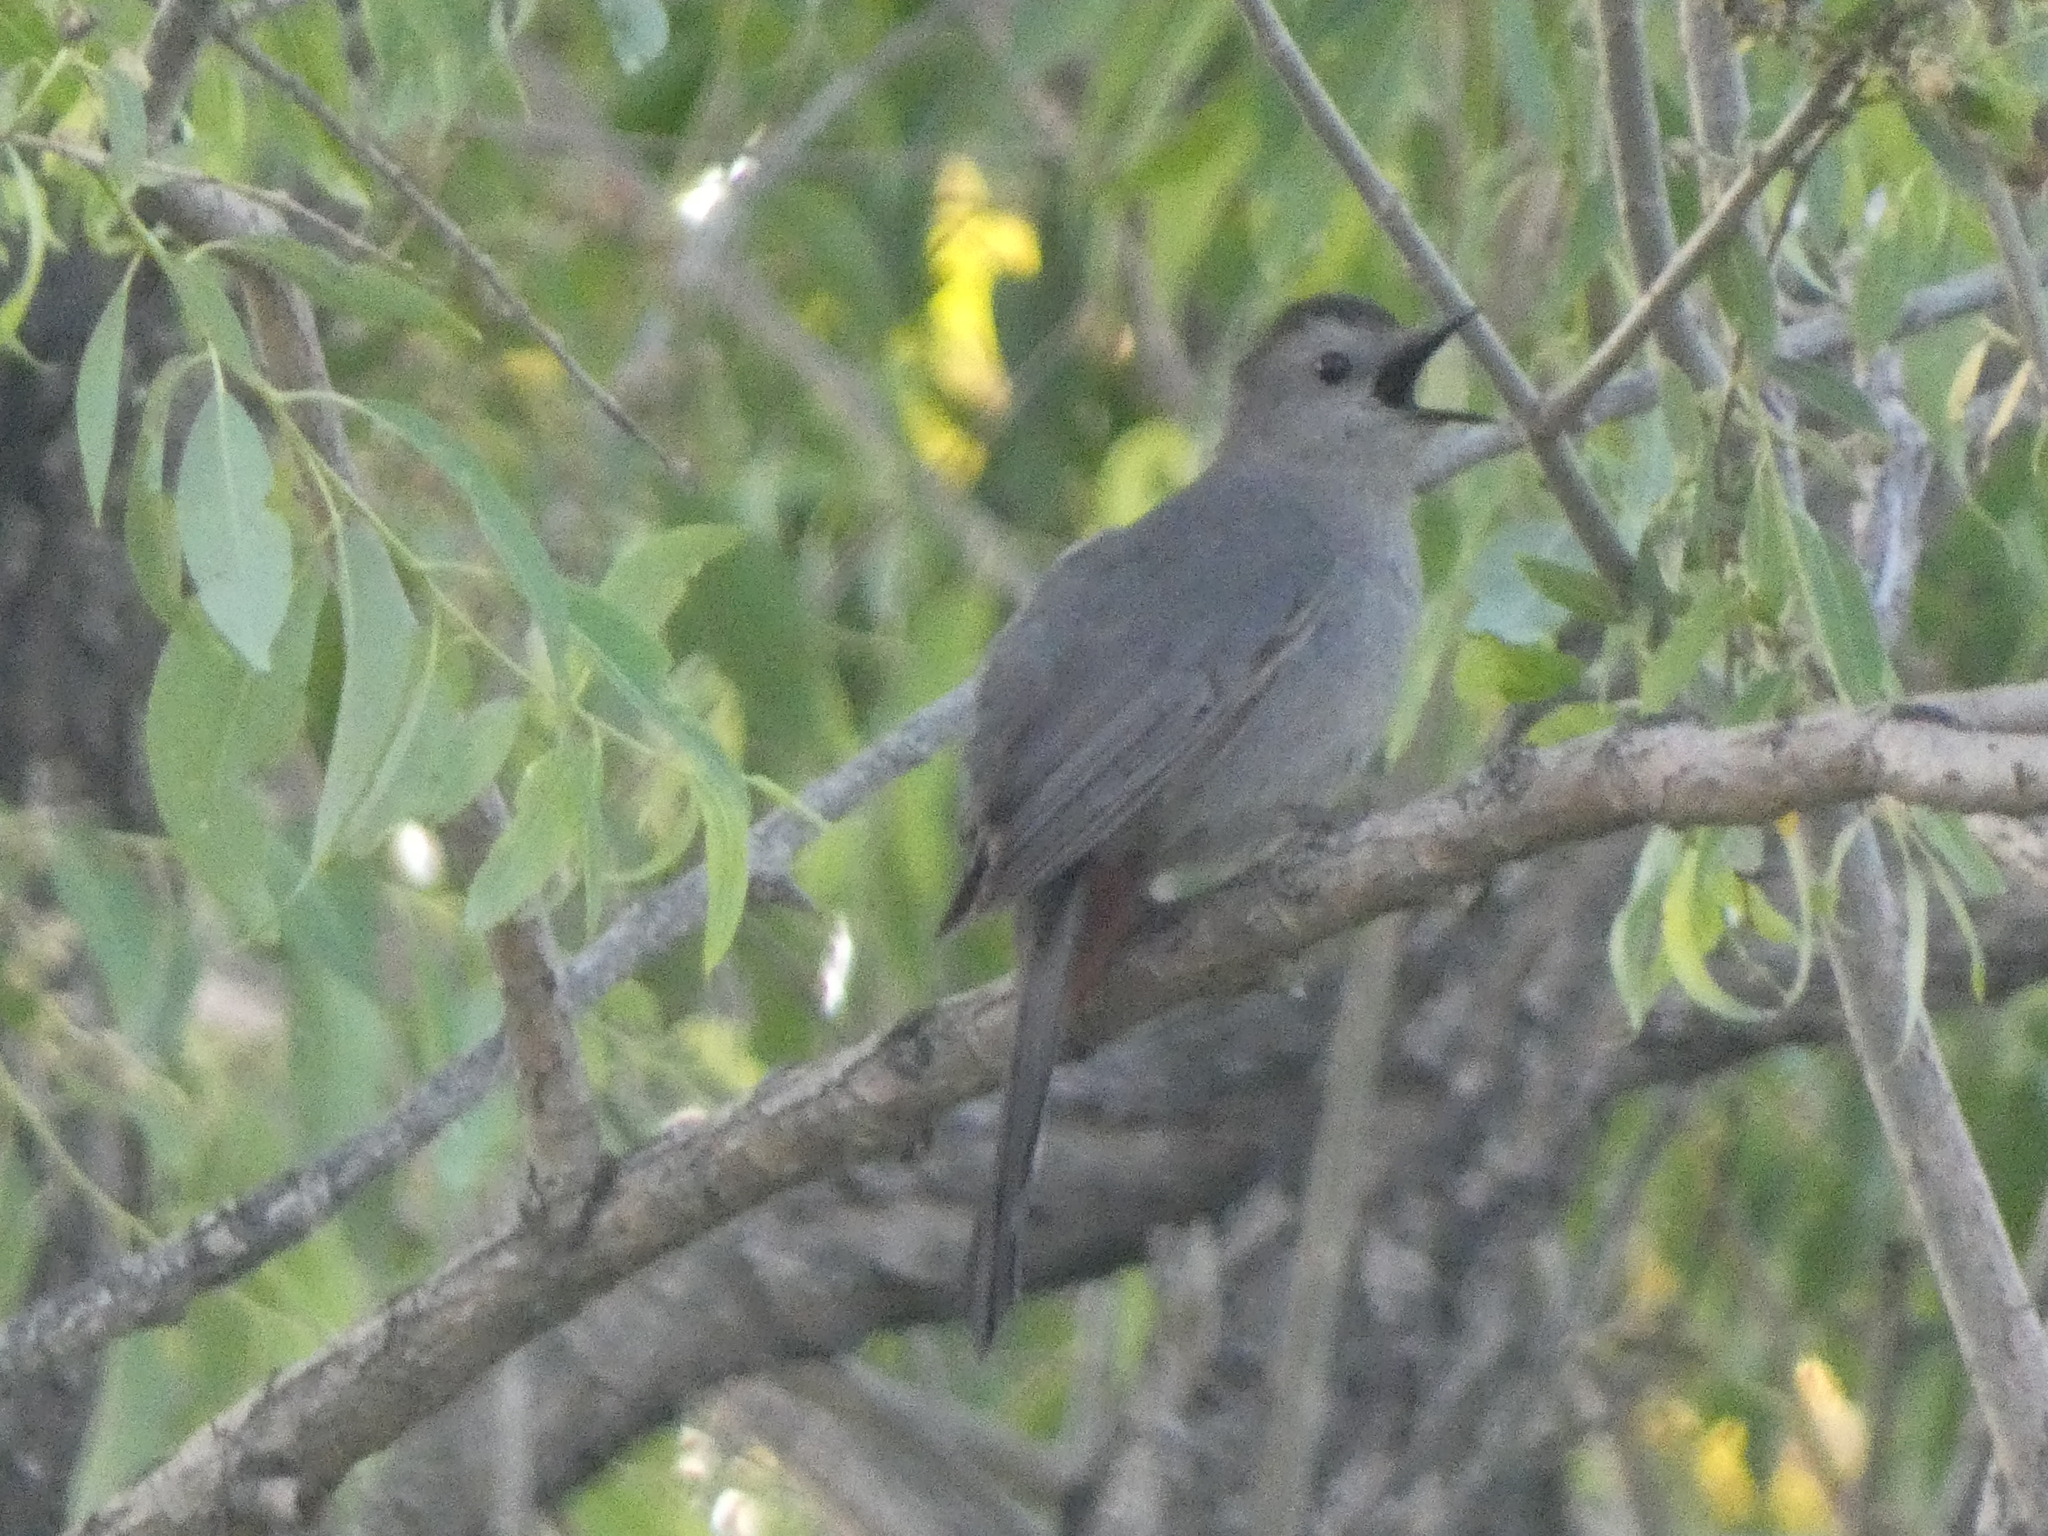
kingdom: Animalia
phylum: Chordata
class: Aves
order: Passeriformes
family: Mimidae
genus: Dumetella
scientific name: Dumetella carolinensis
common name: Gray catbird
